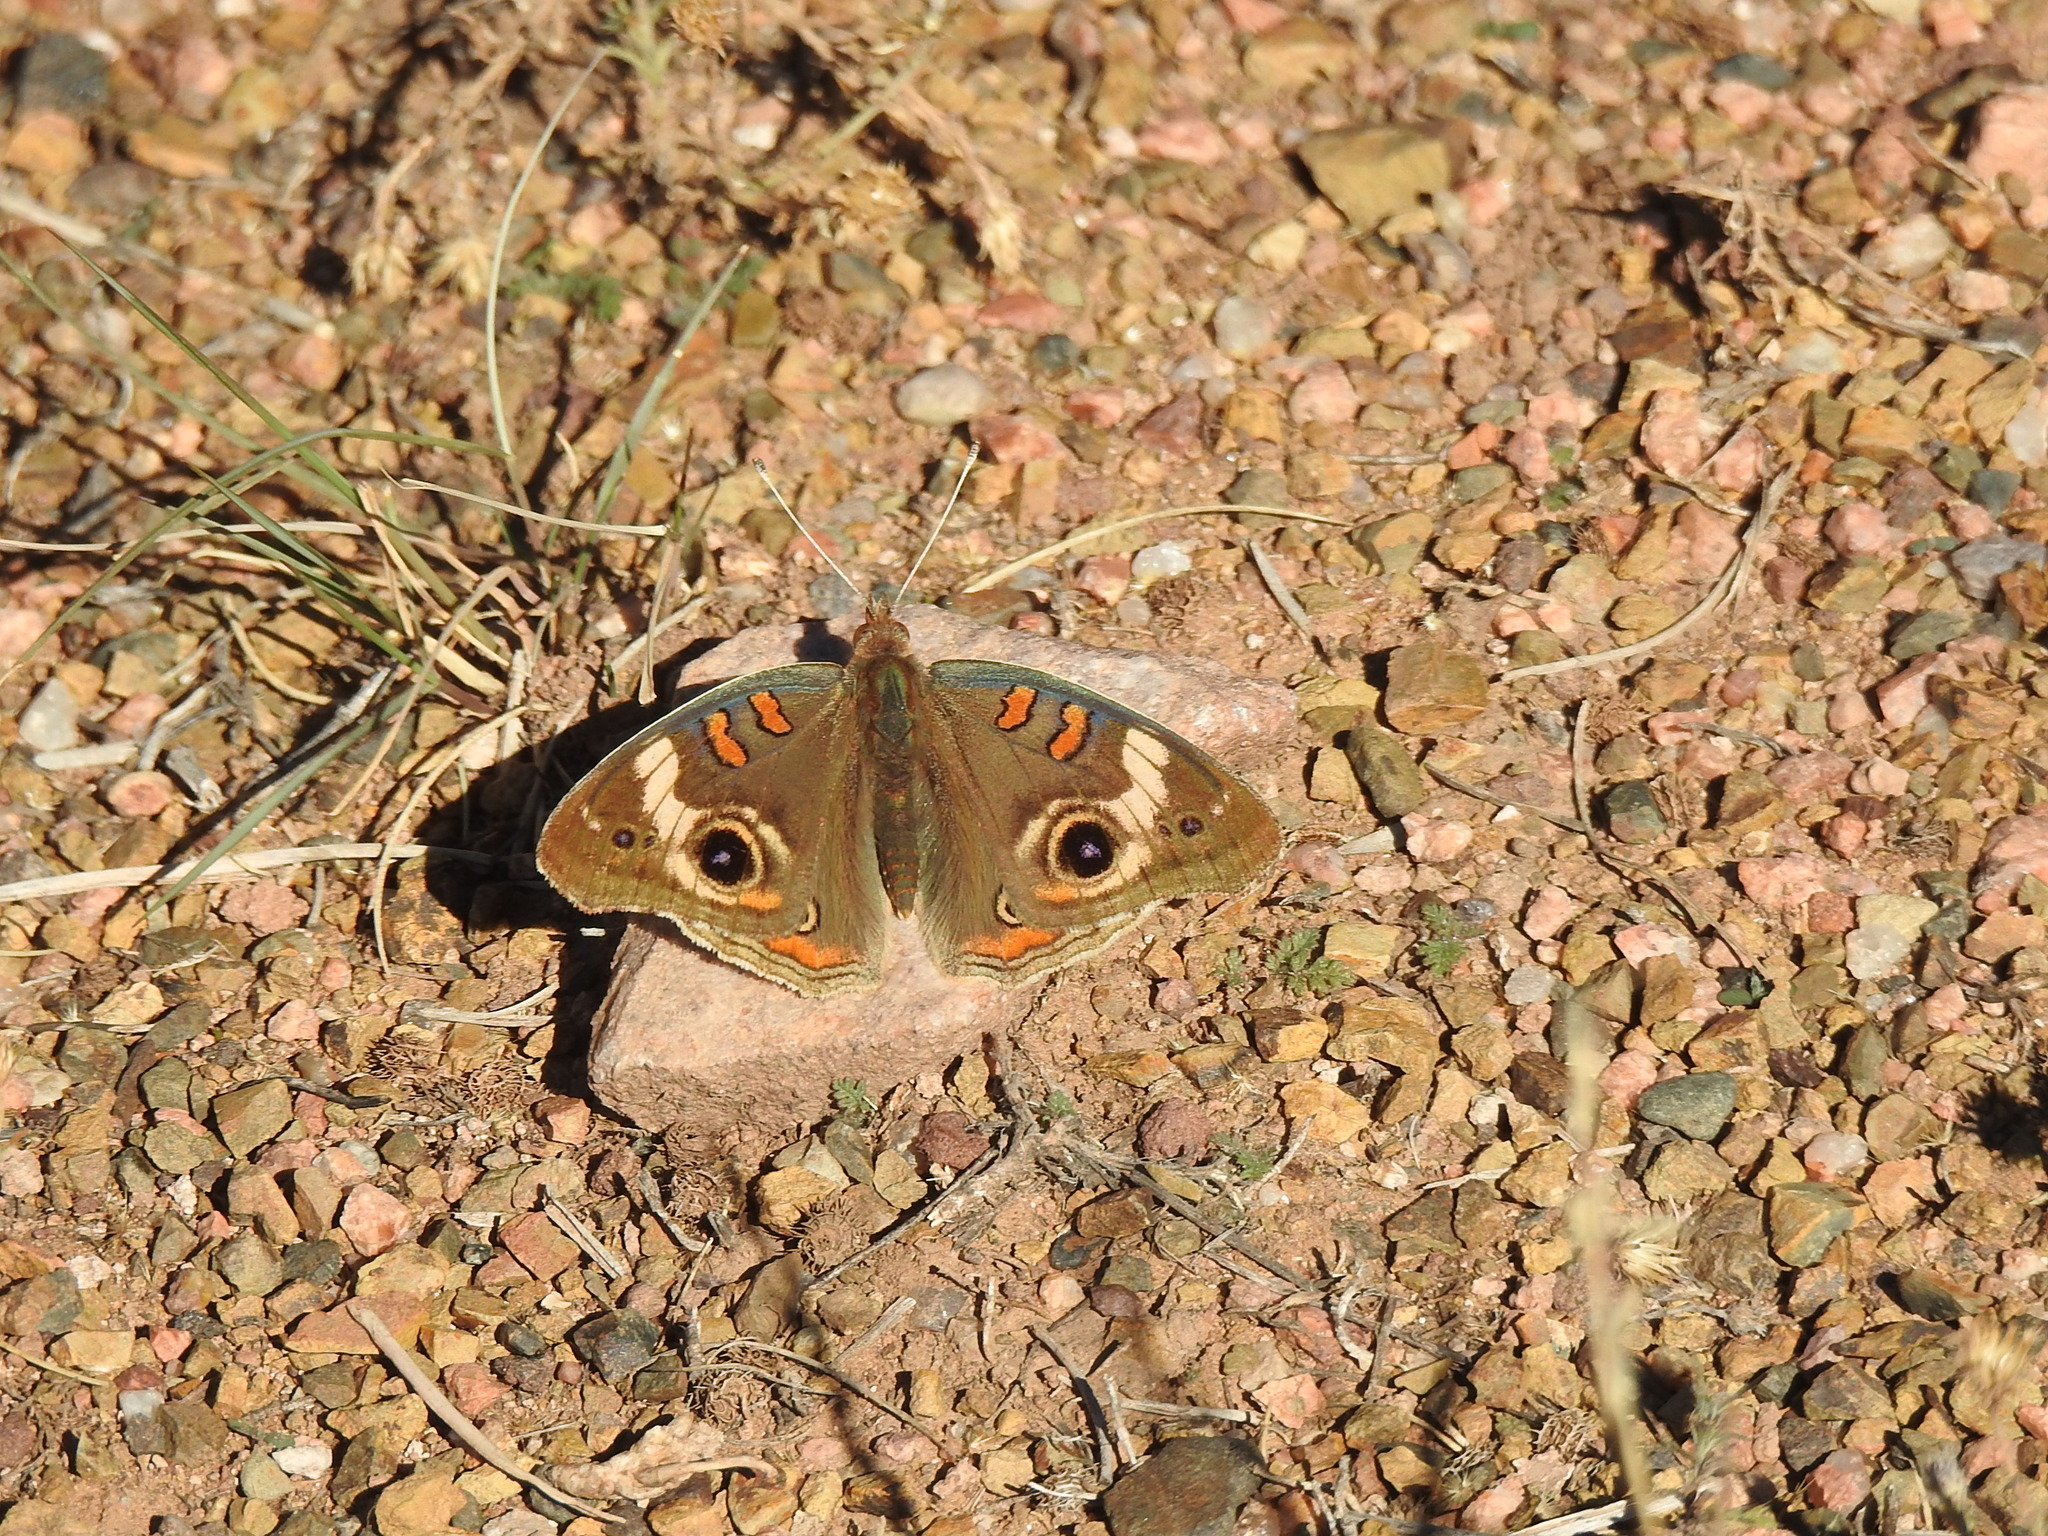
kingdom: Animalia
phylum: Arthropoda
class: Insecta
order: Lepidoptera
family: Nymphalidae
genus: Junonia
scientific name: Junonia grisea
